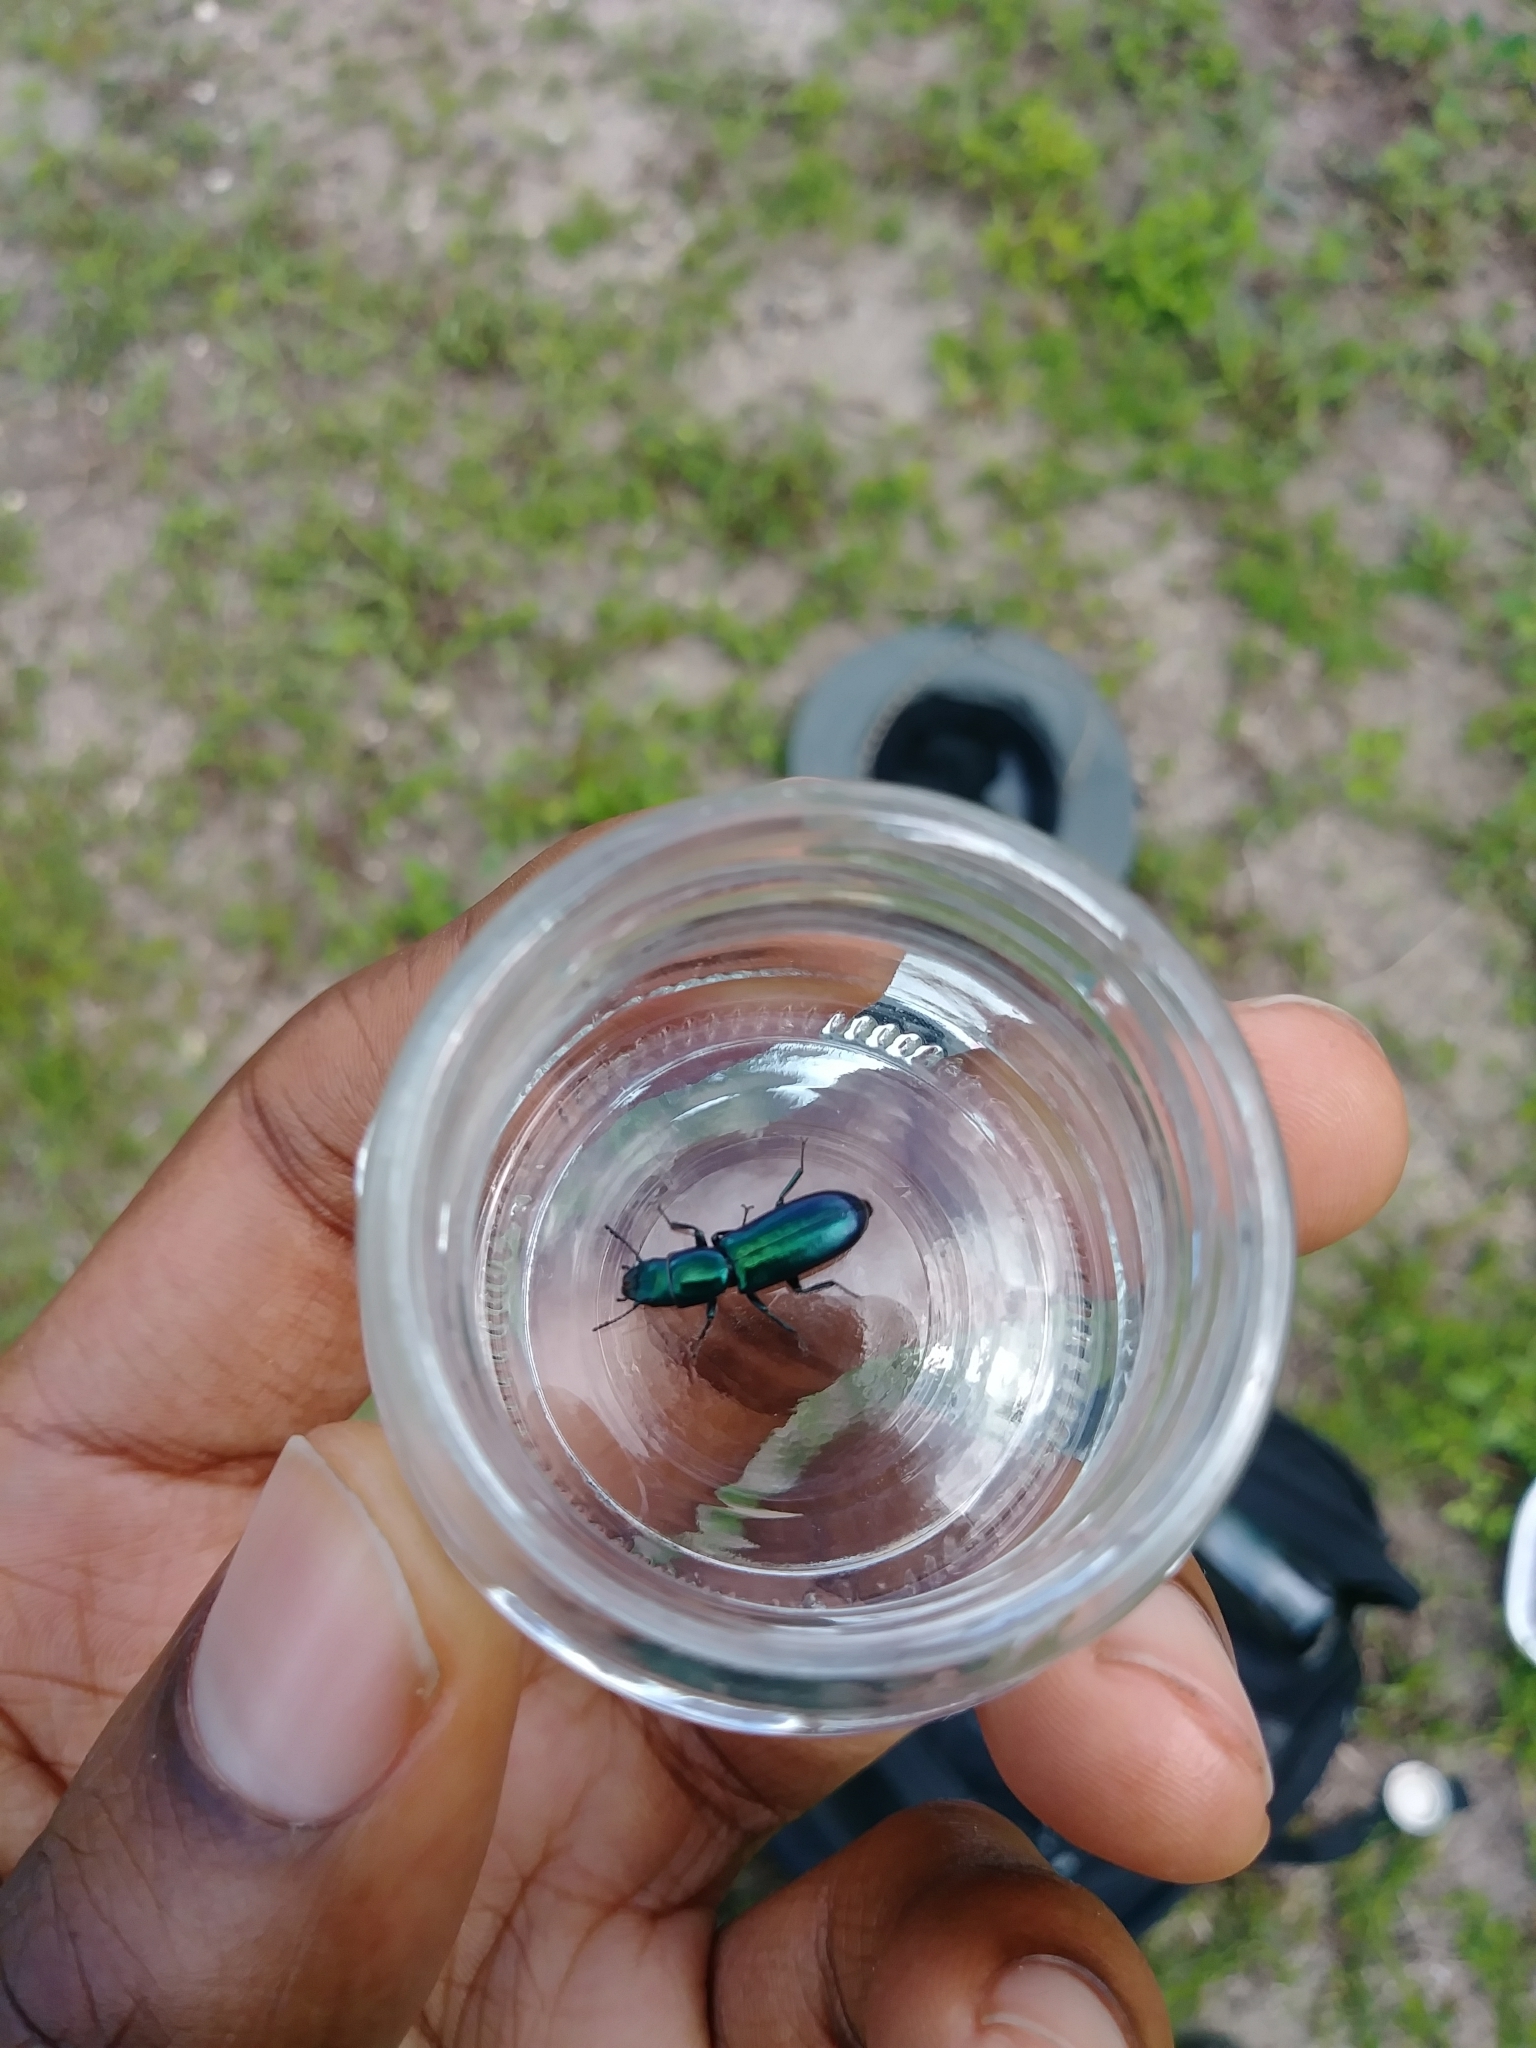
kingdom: Animalia
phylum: Arthropoda
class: Insecta
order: Coleoptera
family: Trogossitidae
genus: Temnochila
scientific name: Temnochila virescens
